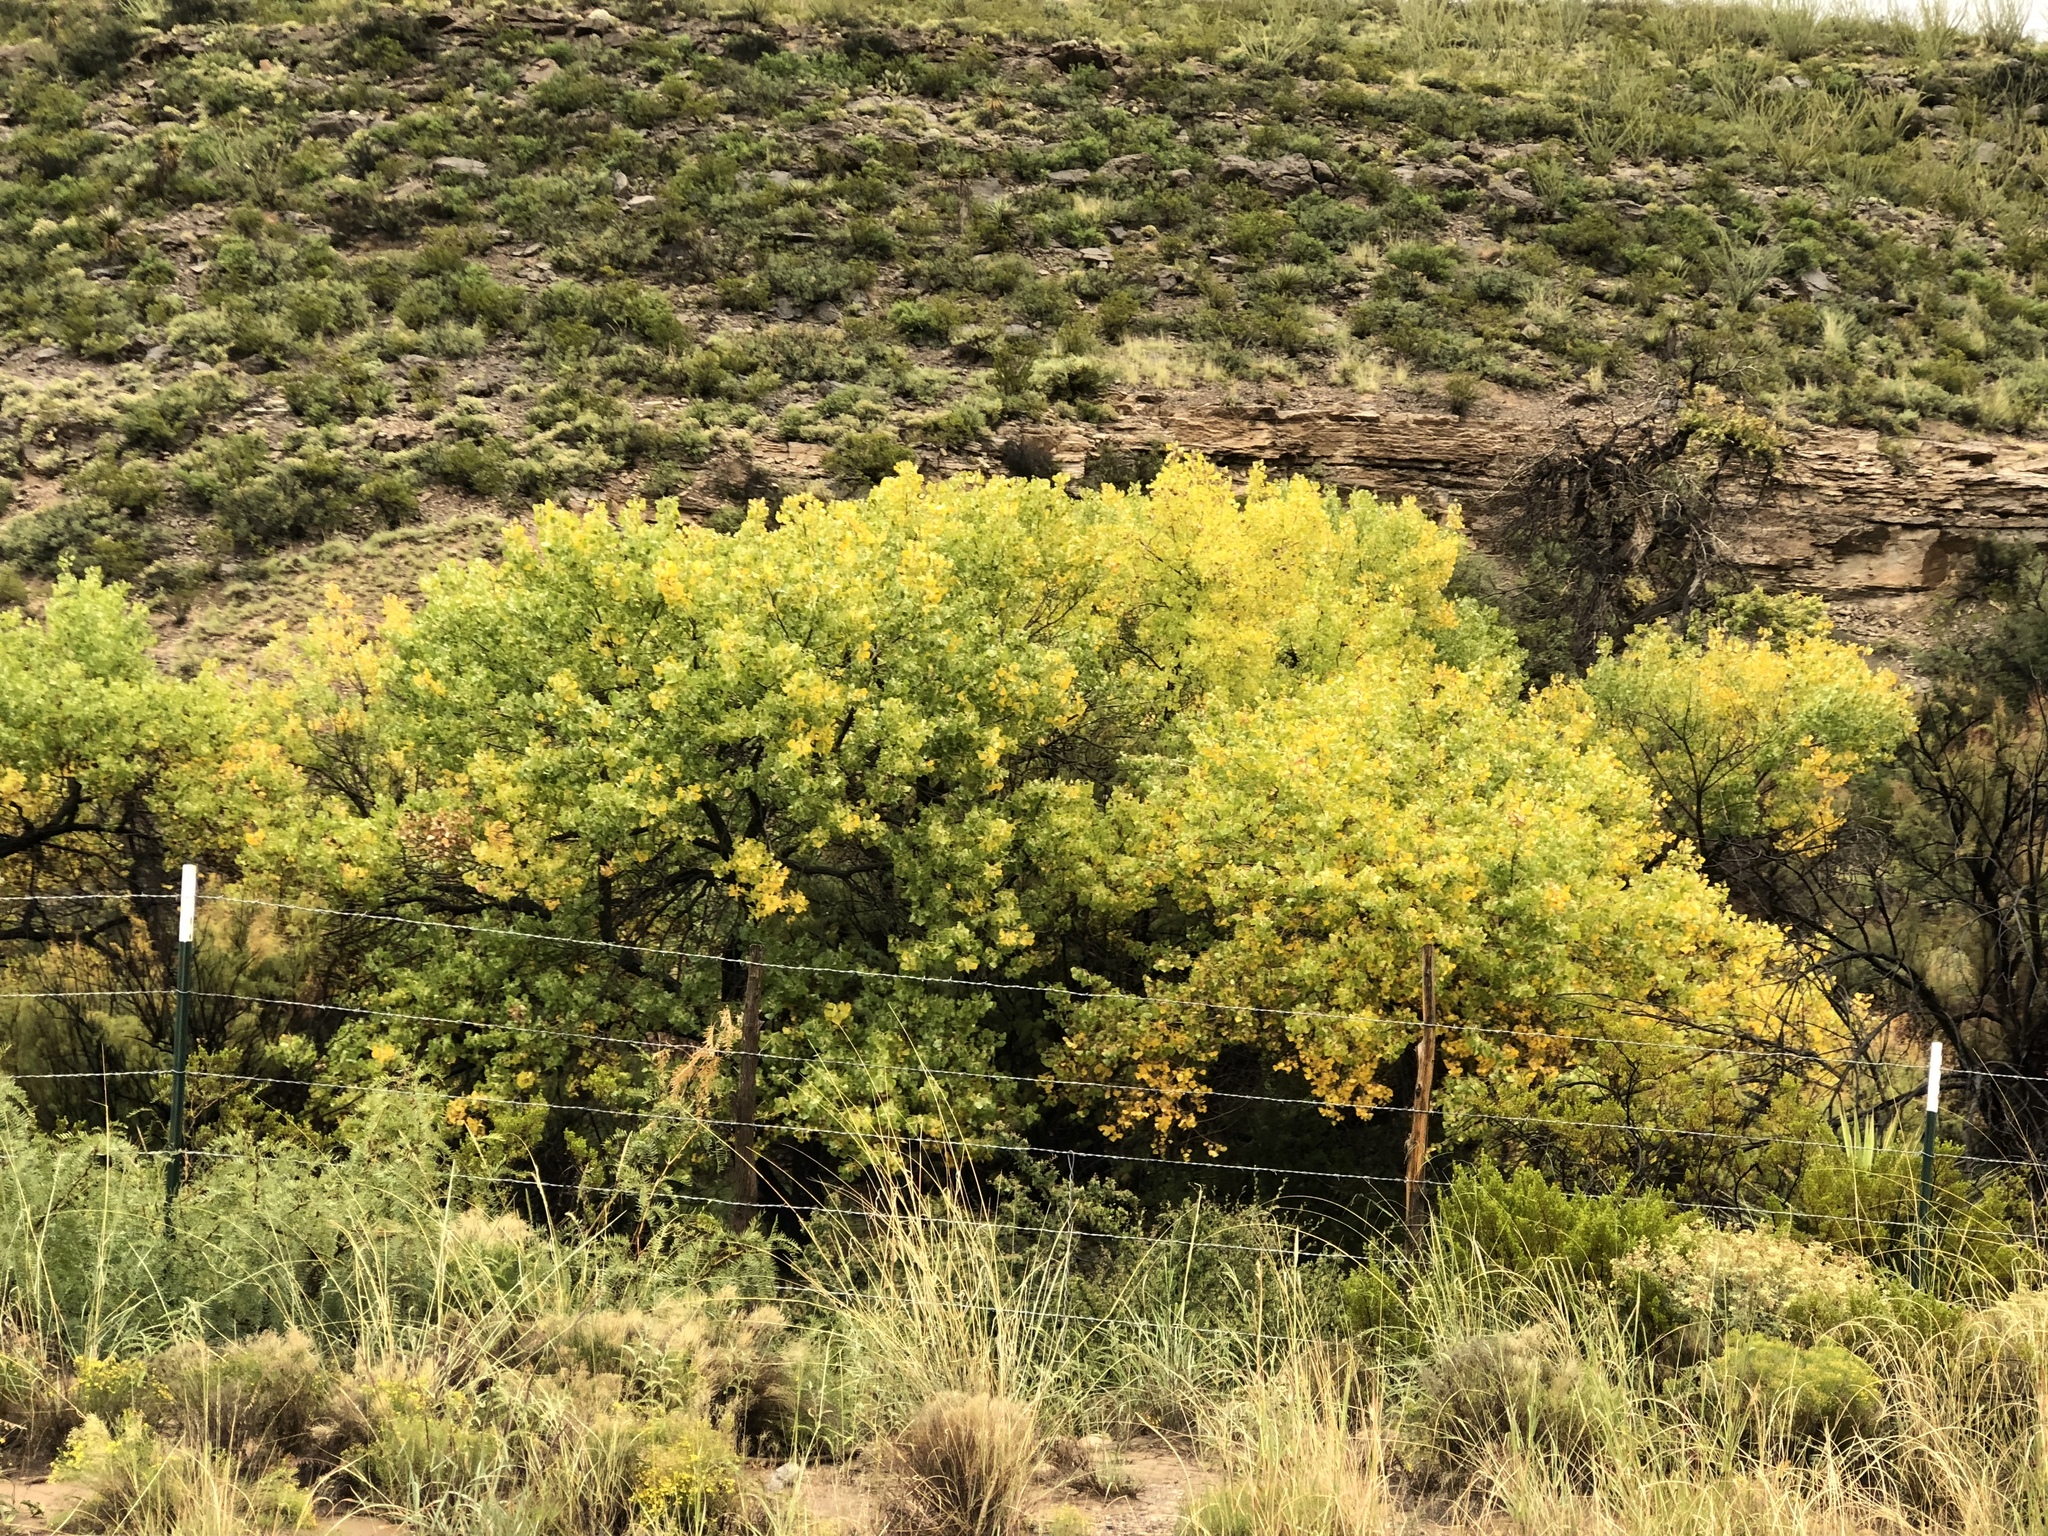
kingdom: Plantae
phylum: Tracheophyta
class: Magnoliopsida
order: Malpighiales
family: Salicaceae
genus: Populus
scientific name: Populus fremontii
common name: Fremont's cottonwood
